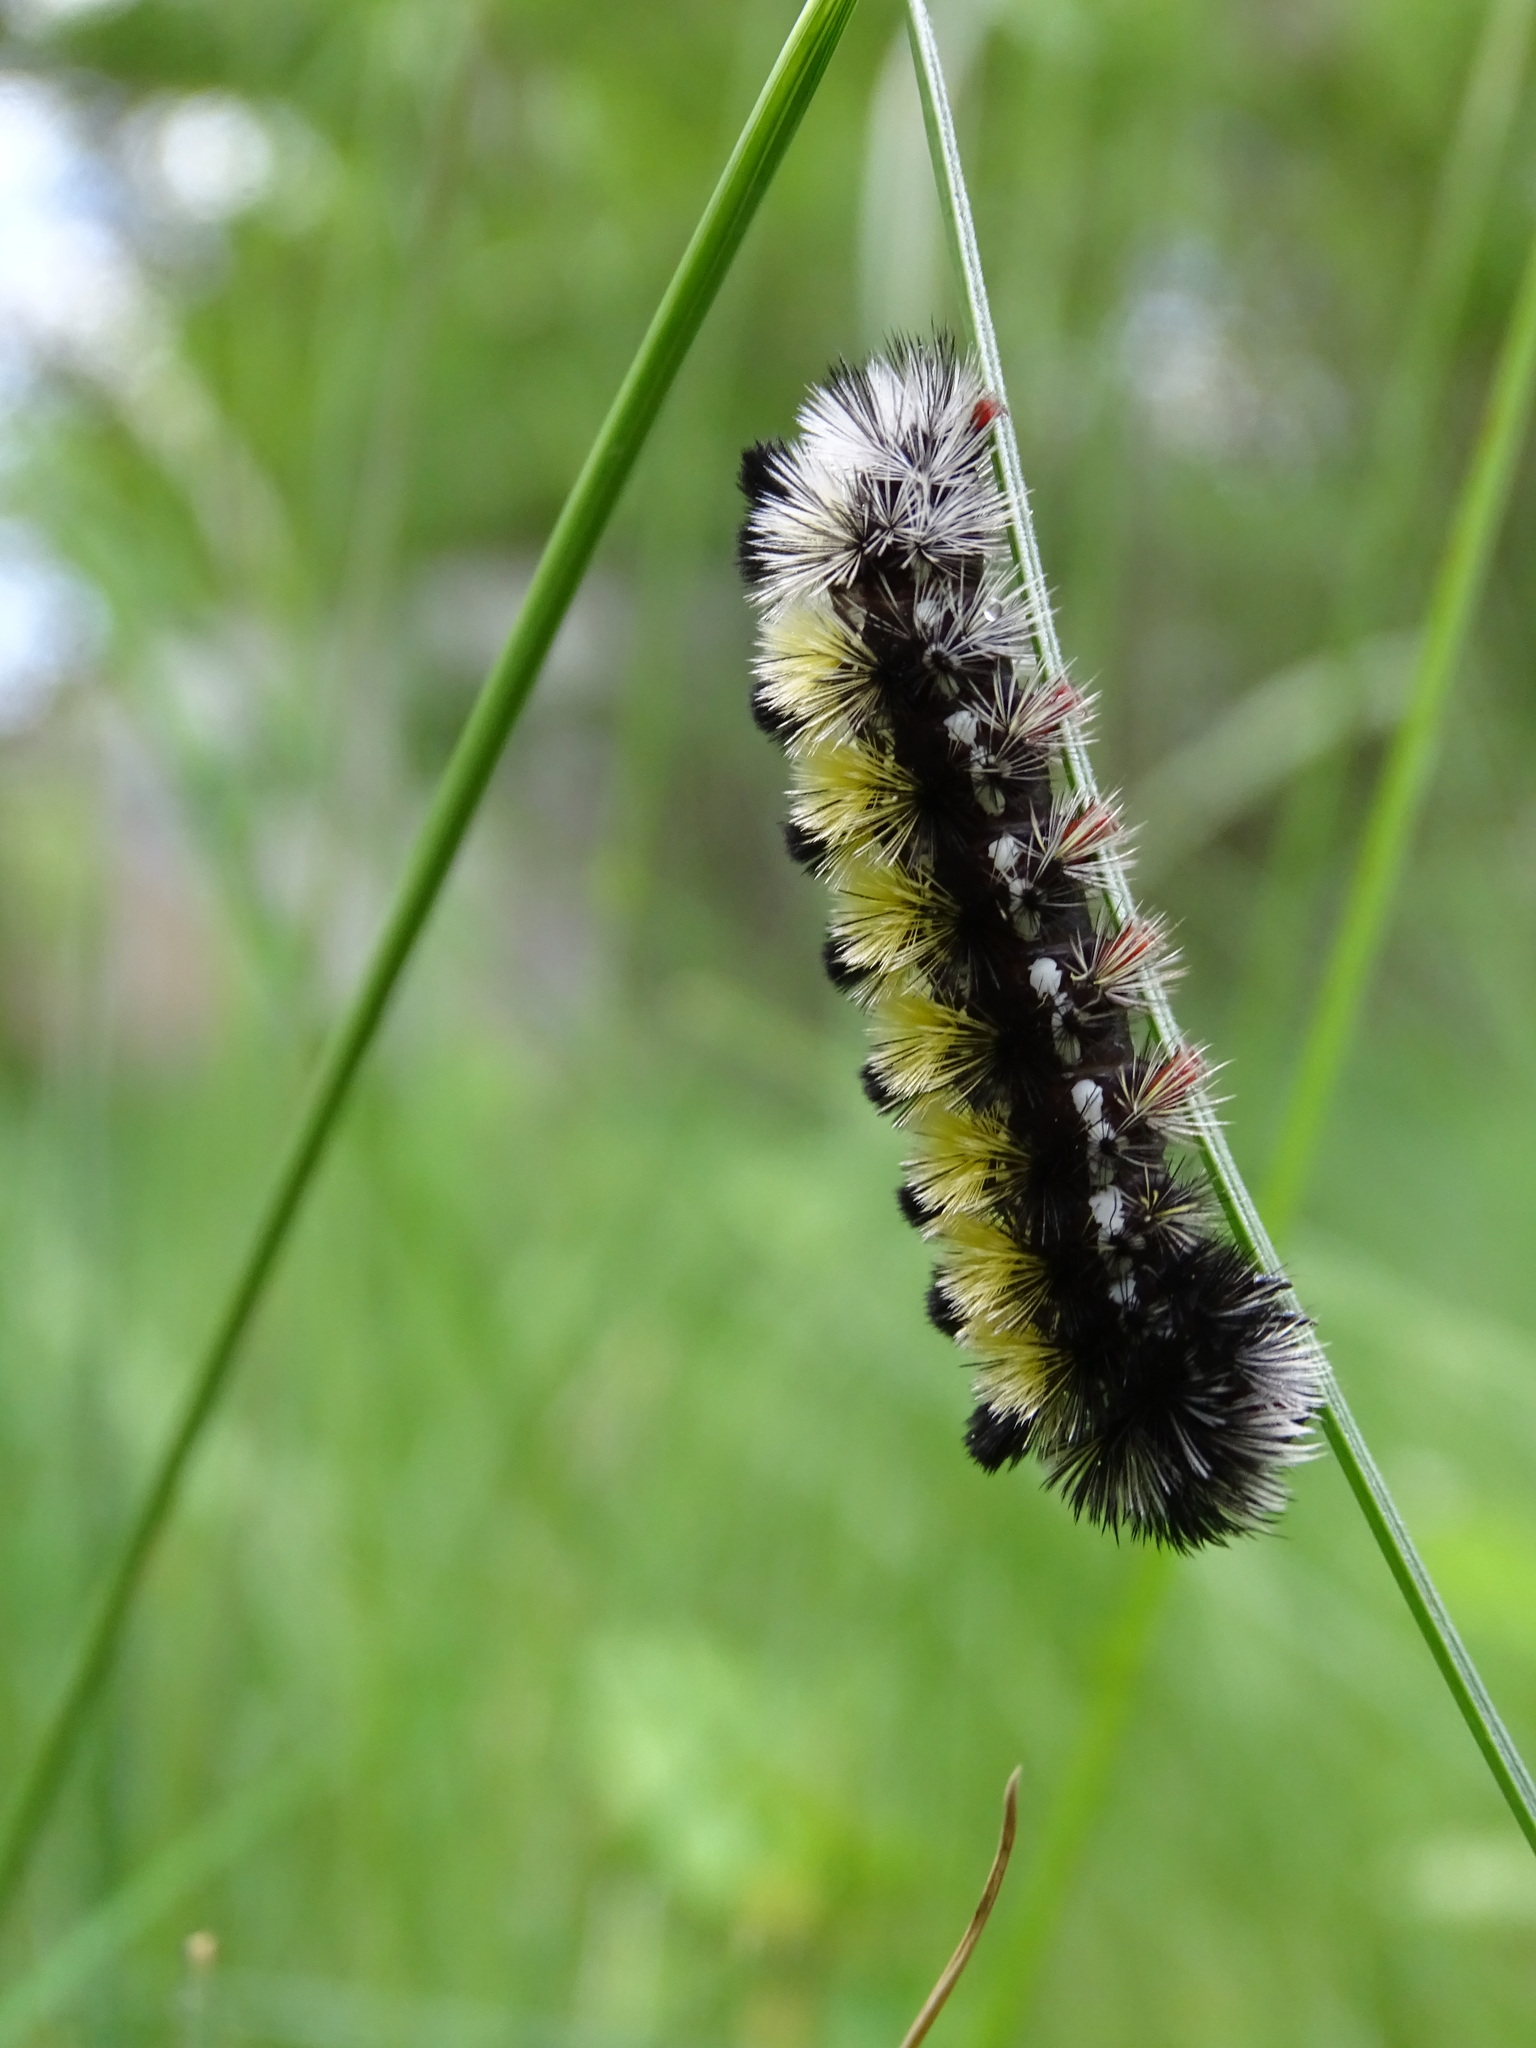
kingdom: Animalia
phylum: Arthropoda
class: Insecta
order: Lepidoptera
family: Erebidae
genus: Ctenucha
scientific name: Ctenucha virginica
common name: Virginia ctenucha moth
